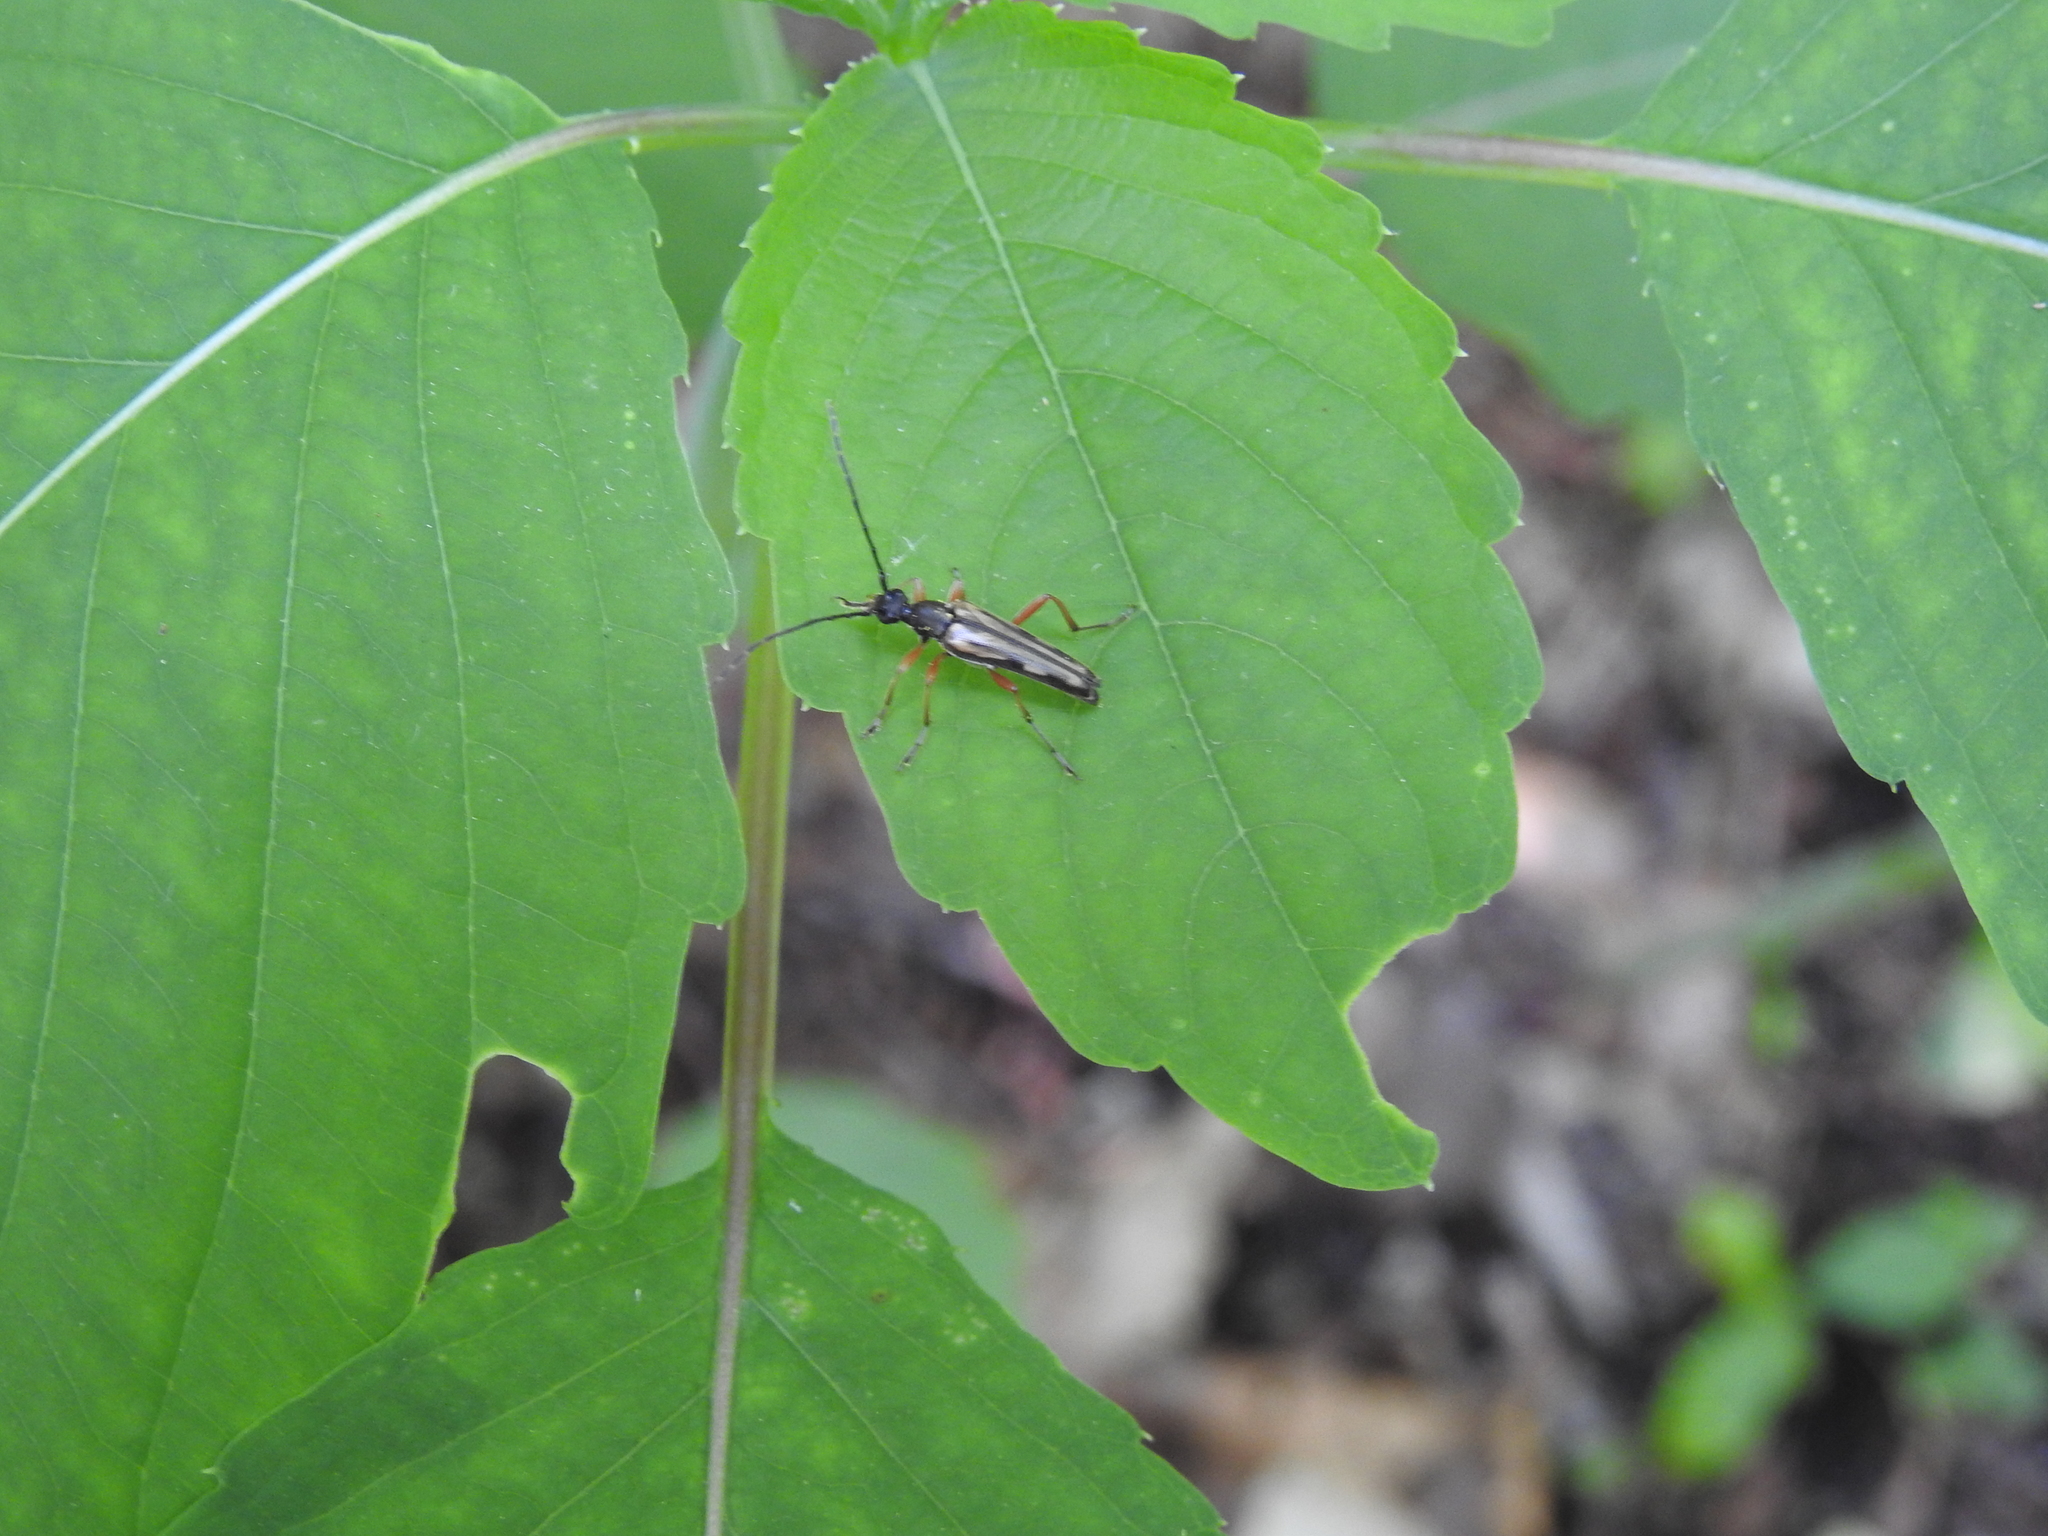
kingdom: Animalia
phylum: Arthropoda
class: Insecta
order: Coleoptera
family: Cerambycidae
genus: Analeptura
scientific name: Analeptura lineola
